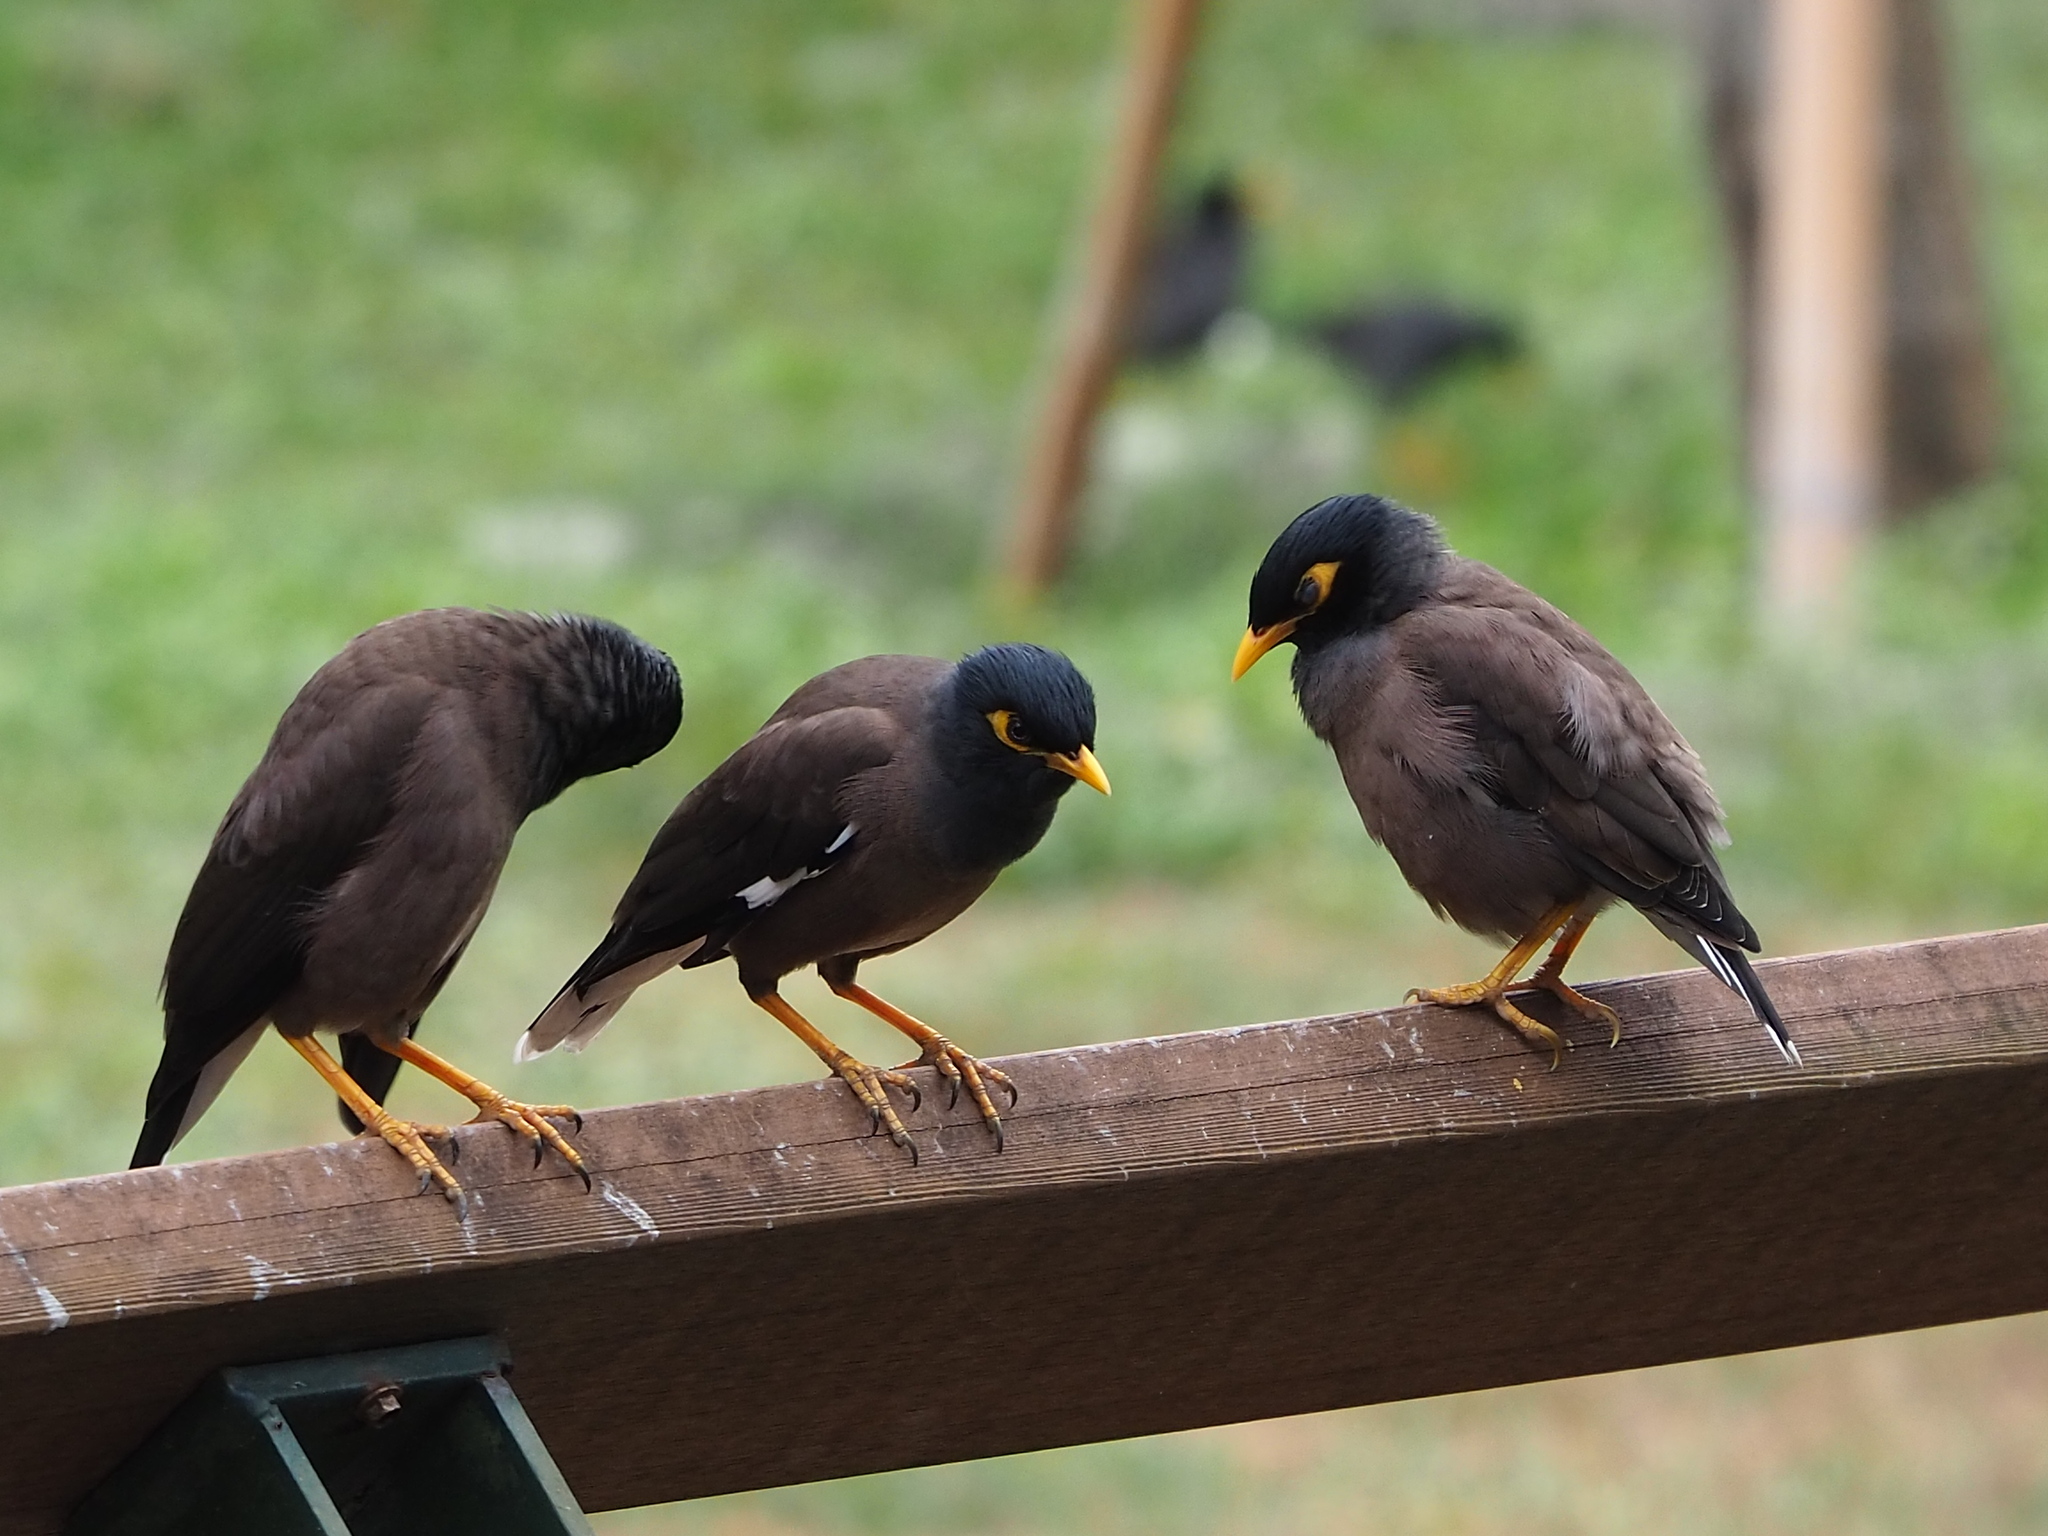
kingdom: Animalia
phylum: Chordata
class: Aves
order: Passeriformes
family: Sturnidae
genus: Acridotheres
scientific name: Acridotheres tristis
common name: Common myna
